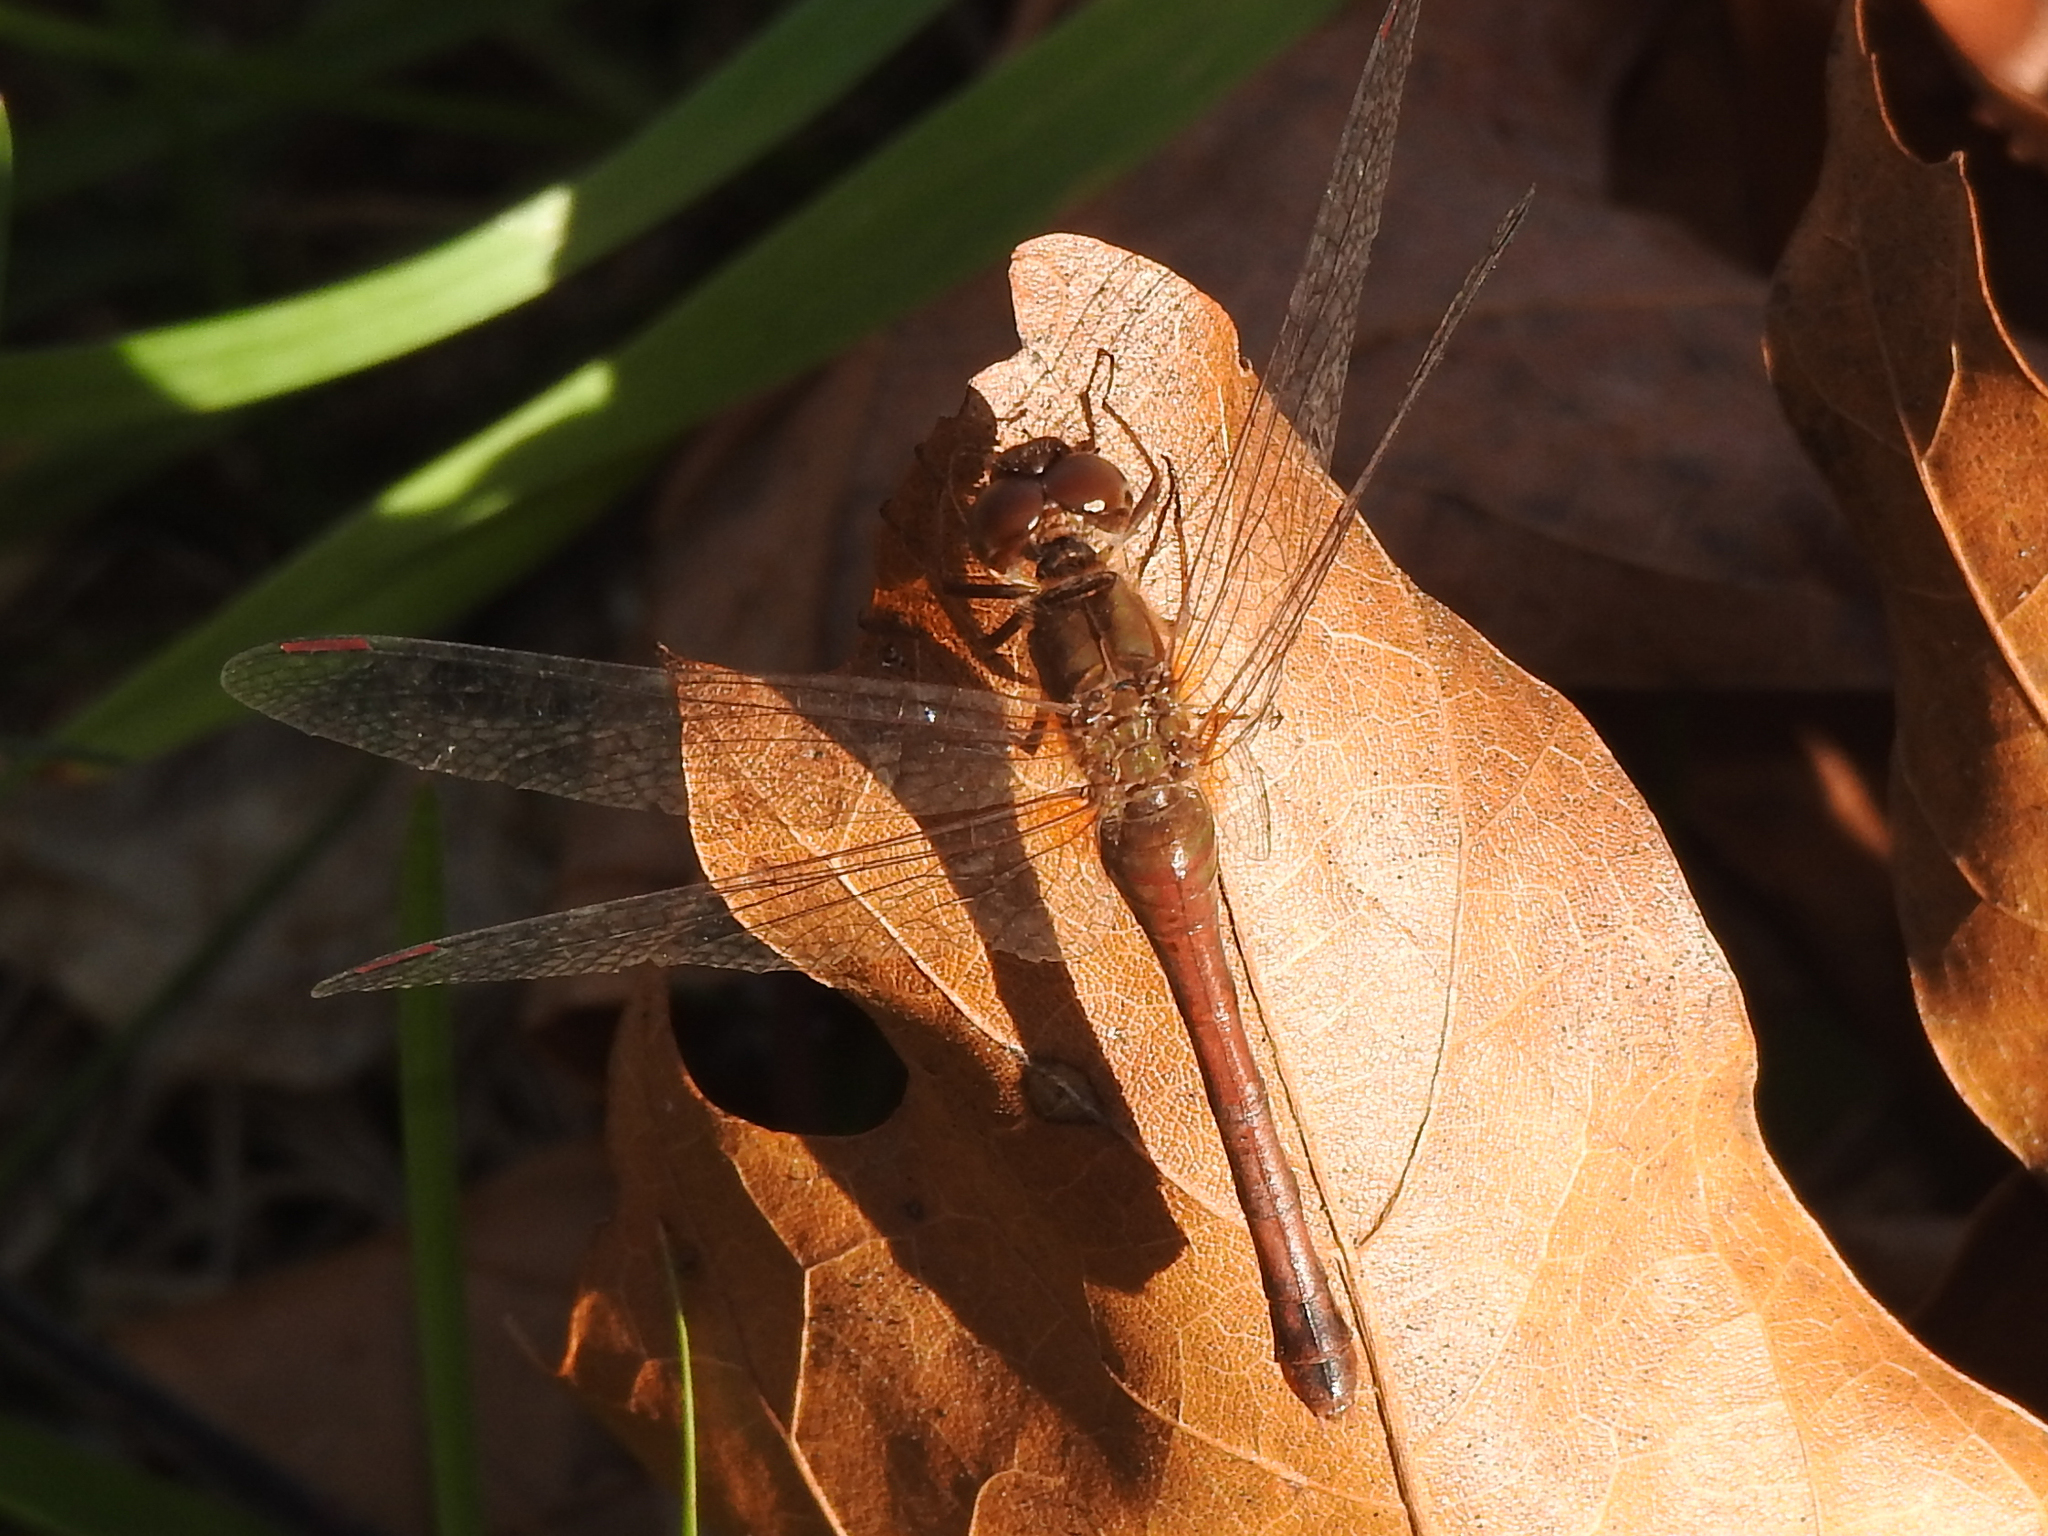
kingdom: Animalia
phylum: Arthropoda
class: Insecta
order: Odonata
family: Libellulidae
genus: Sympetrum
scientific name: Sympetrum vicinum
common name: Autumn meadowhawk
